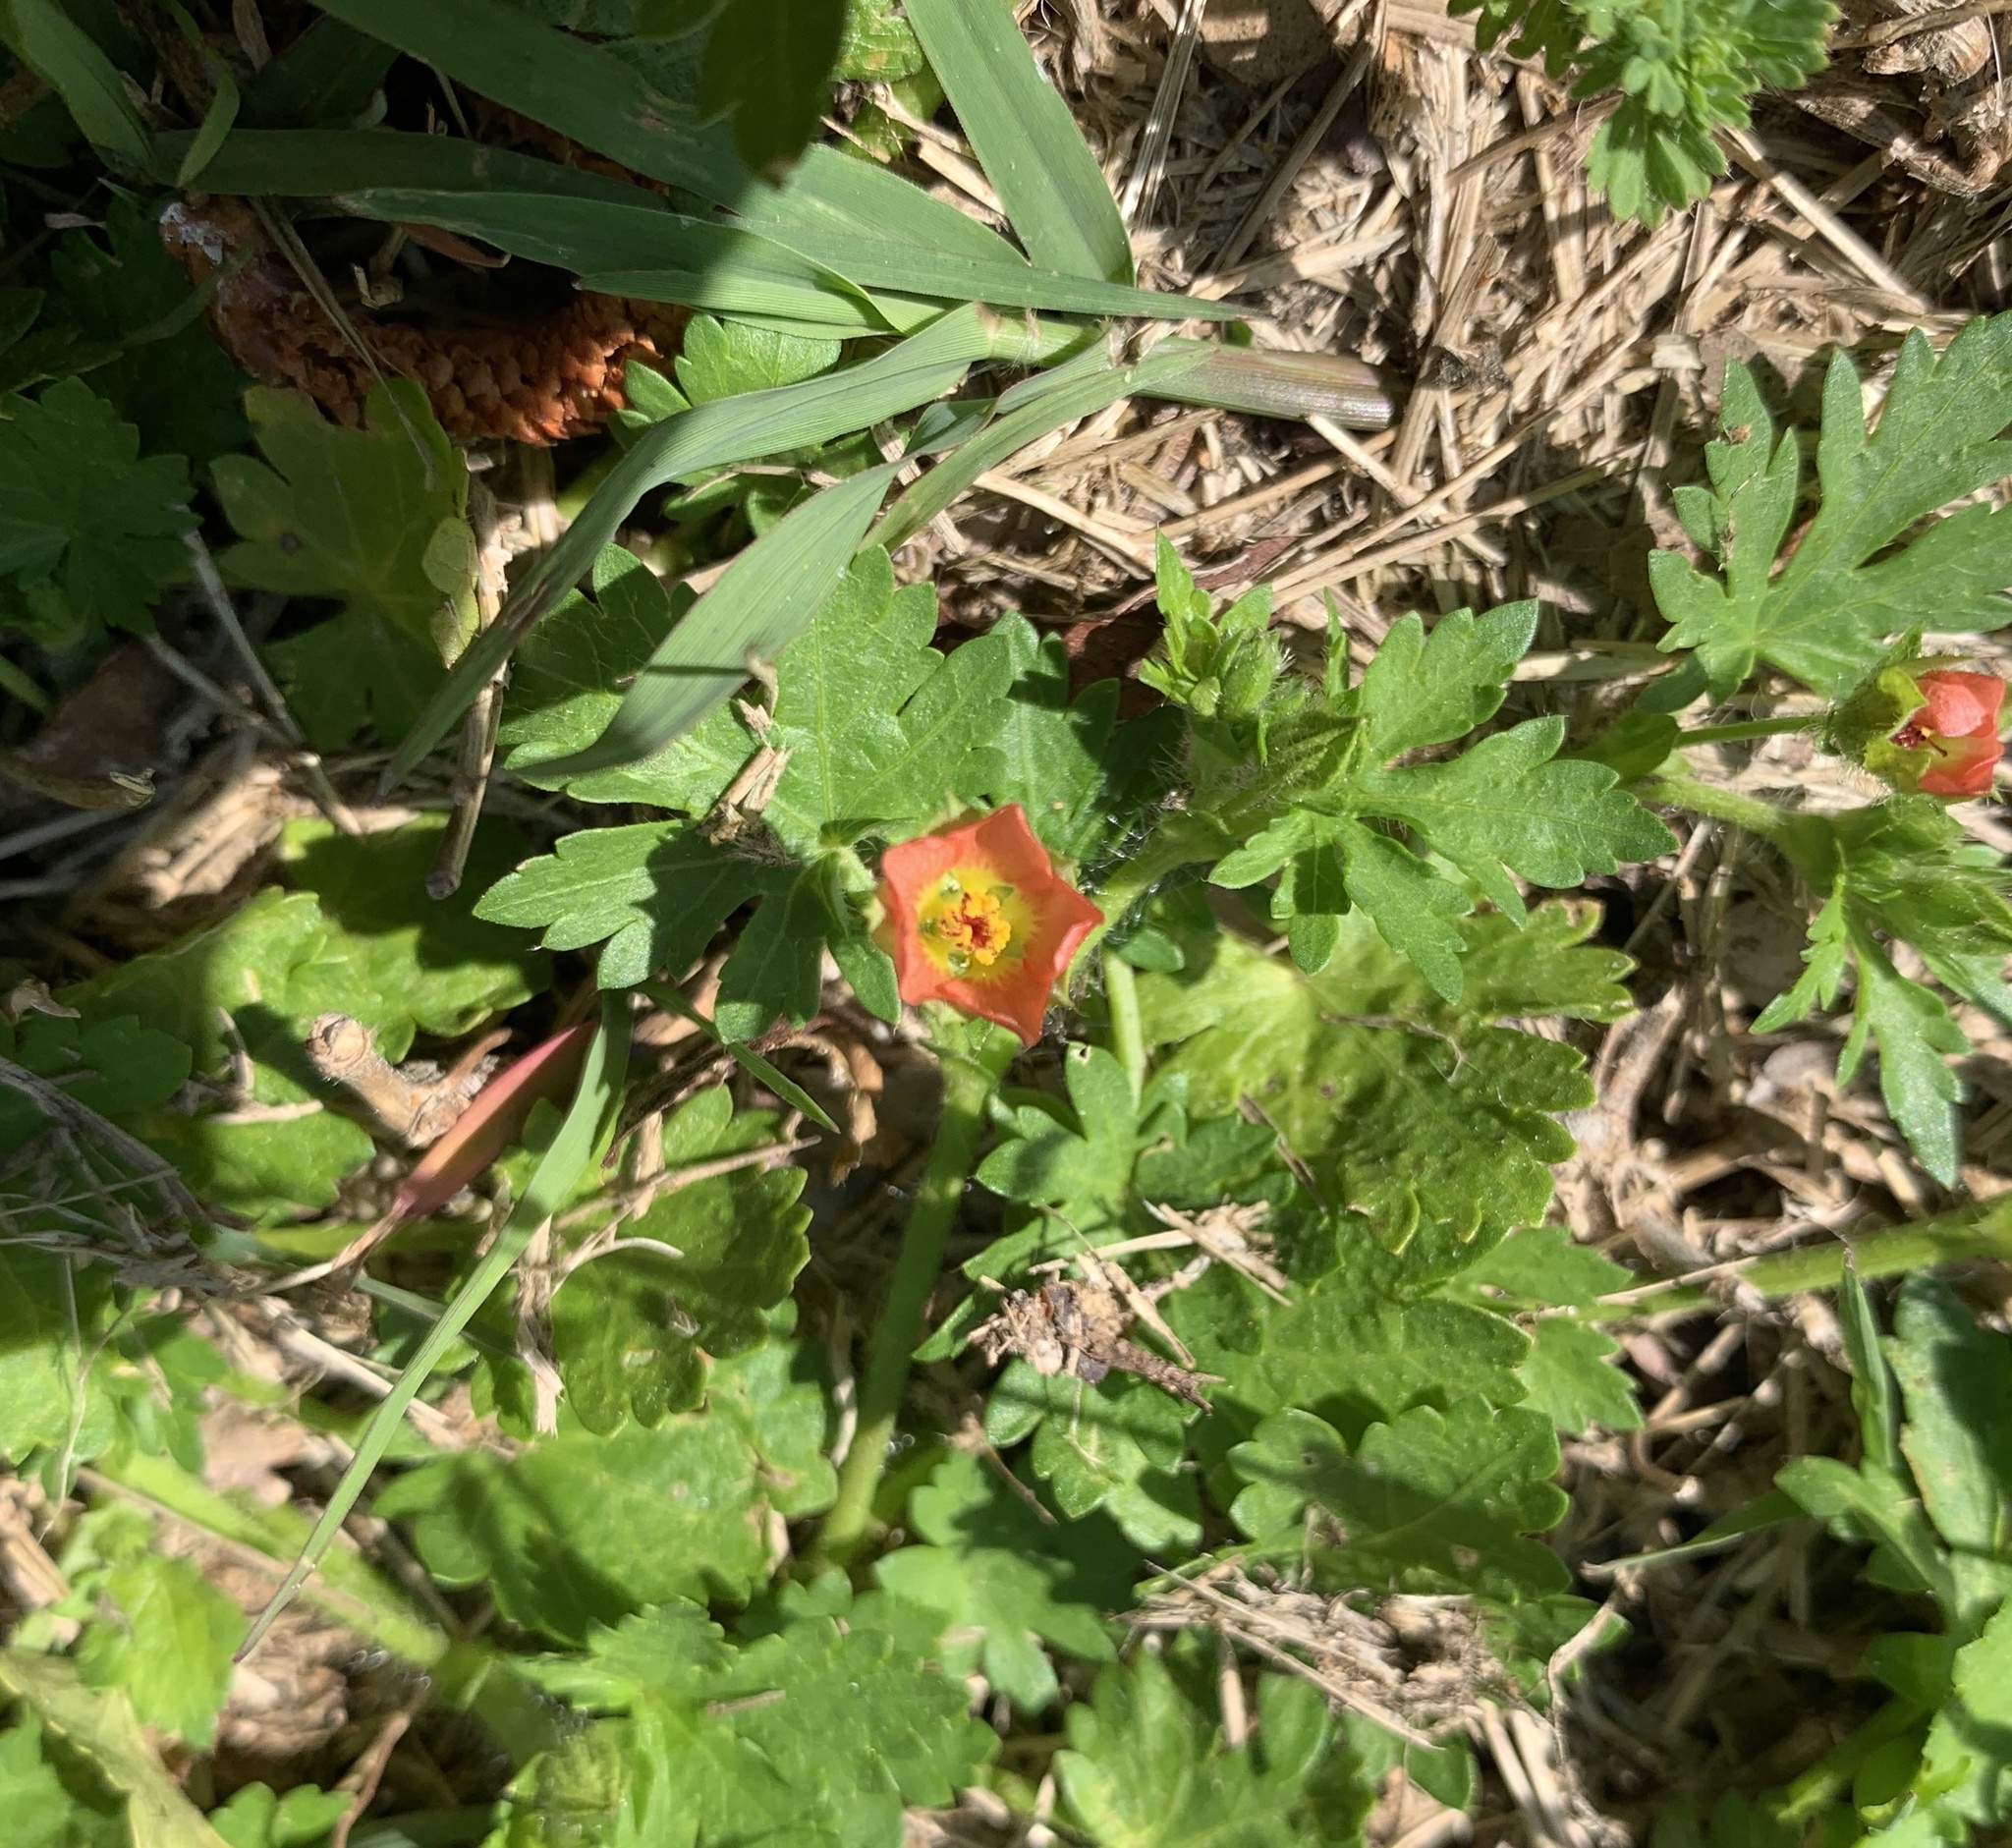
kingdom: Plantae
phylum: Tracheophyta
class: Magnoliopsida
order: Malvales
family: Malvaceae
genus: Modiola
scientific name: Modiola caroliniana
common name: Carolina bristlemallow
